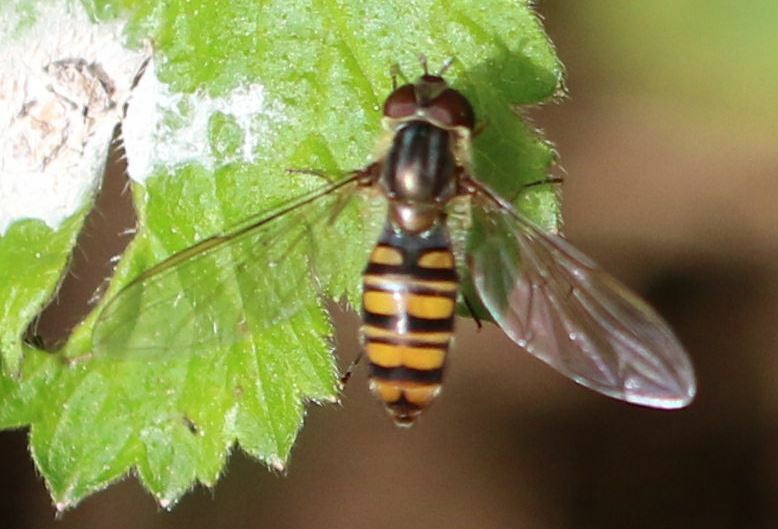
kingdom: Animalia
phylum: Arthropoda
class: Insecta
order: Diptera
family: Syrphidae
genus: Episyrphus
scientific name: Episyrphus balteatus
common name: Marmalade hoverfly
